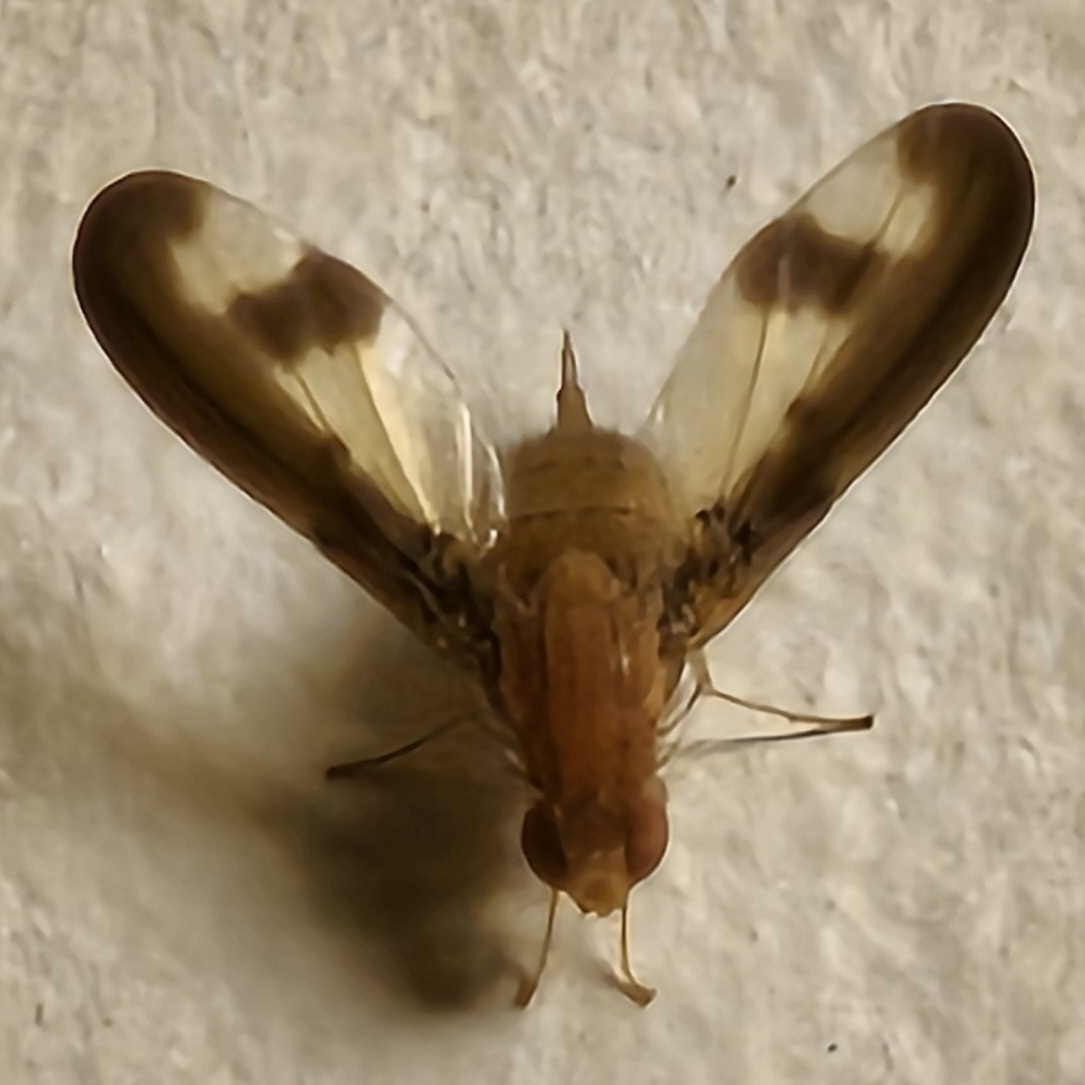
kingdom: Animalia
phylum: Arthropoda
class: Insecta
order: Diptera
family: Pallopteridae
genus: Toxonevra
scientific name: Toxonevra superba
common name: Antlered flutter fly
